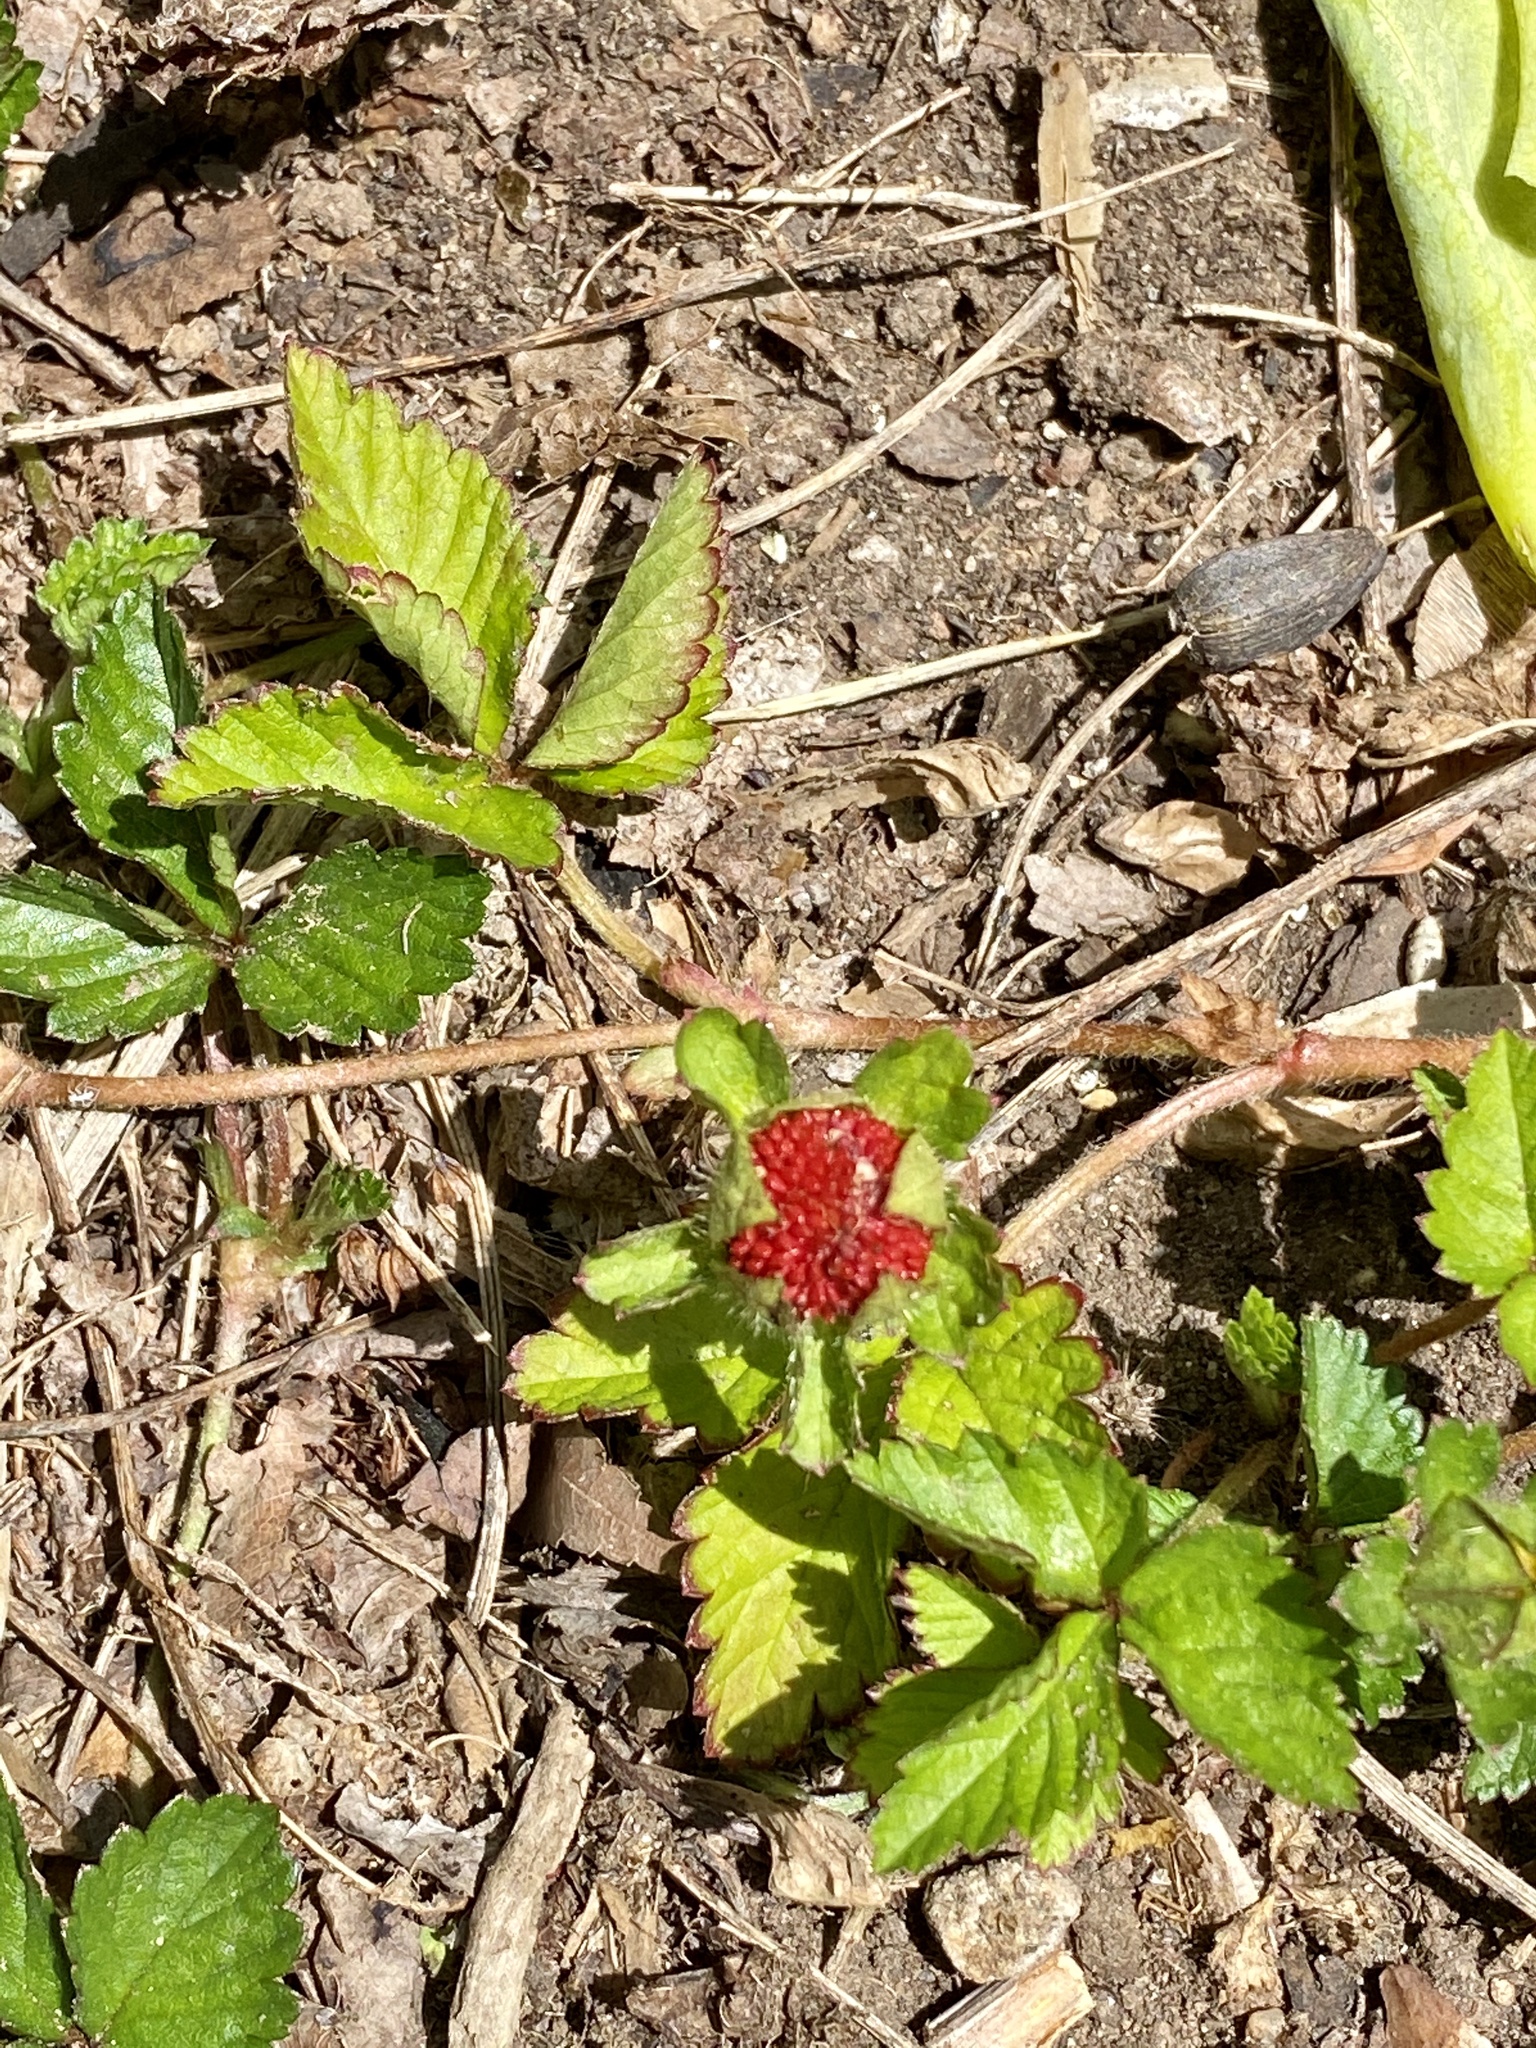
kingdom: Plantae
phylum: Tracheophyta
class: Magnoliopsida
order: Rosales
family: Rosaceae
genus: Potentilla
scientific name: Potentilla indica
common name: Yellow-flowered strawberry
